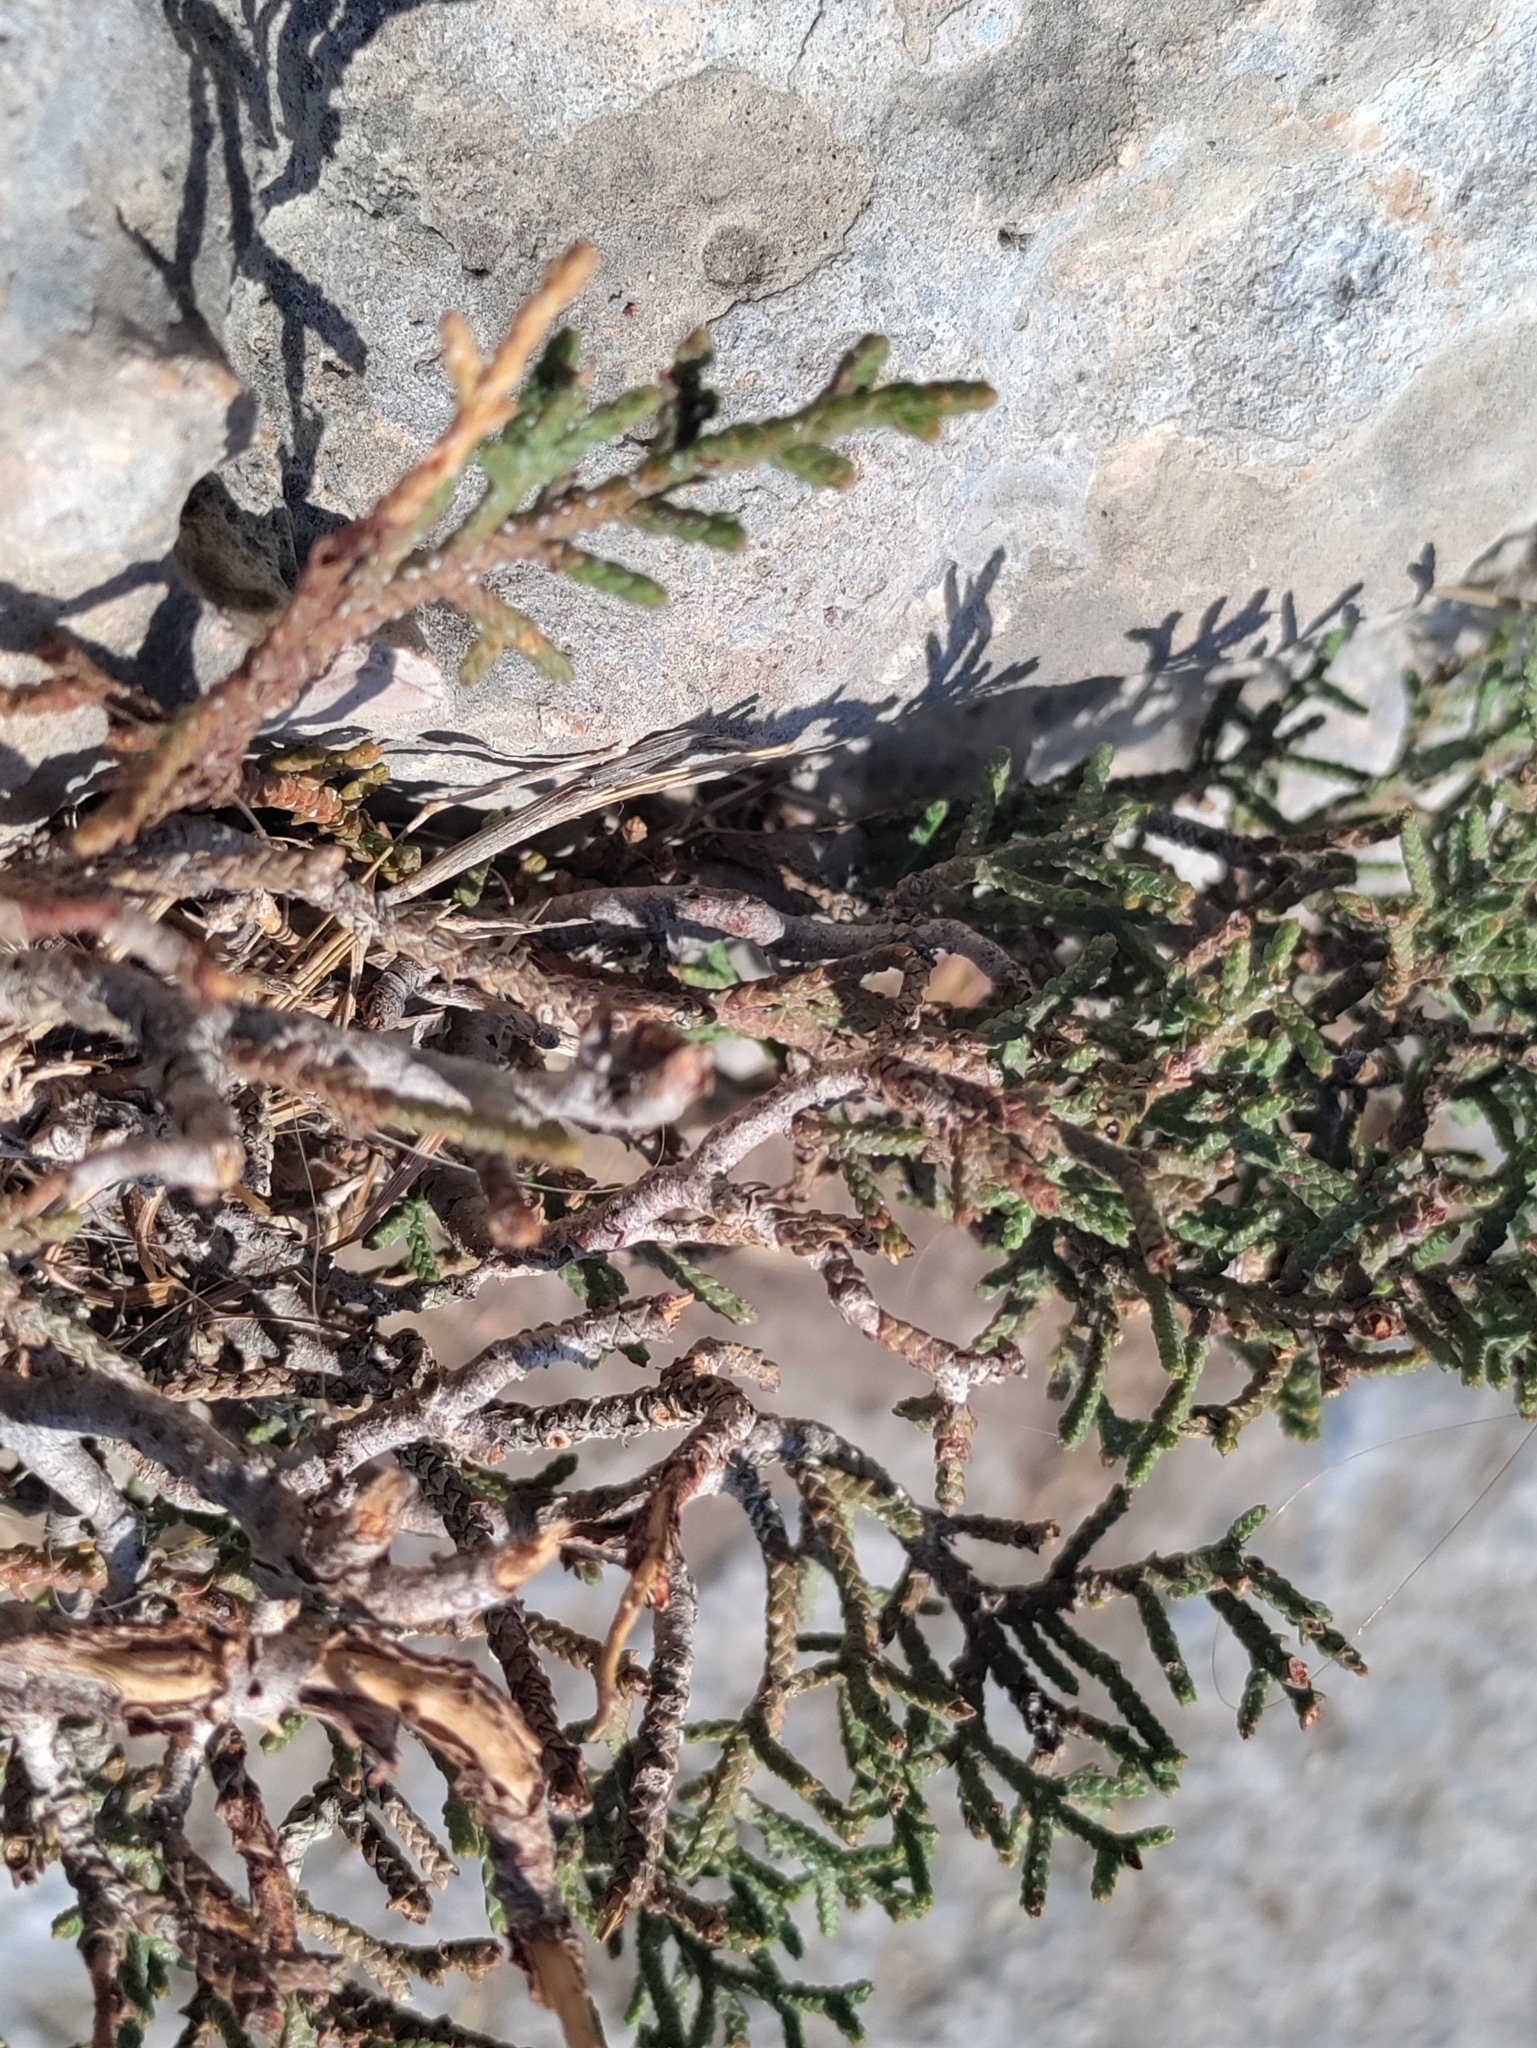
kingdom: Plantae
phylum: Tracheophyta
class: Pinopsida
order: Pinales
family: Cupressaceae
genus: Cupressus
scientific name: Cupressus sempervirens
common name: Italian cypress
